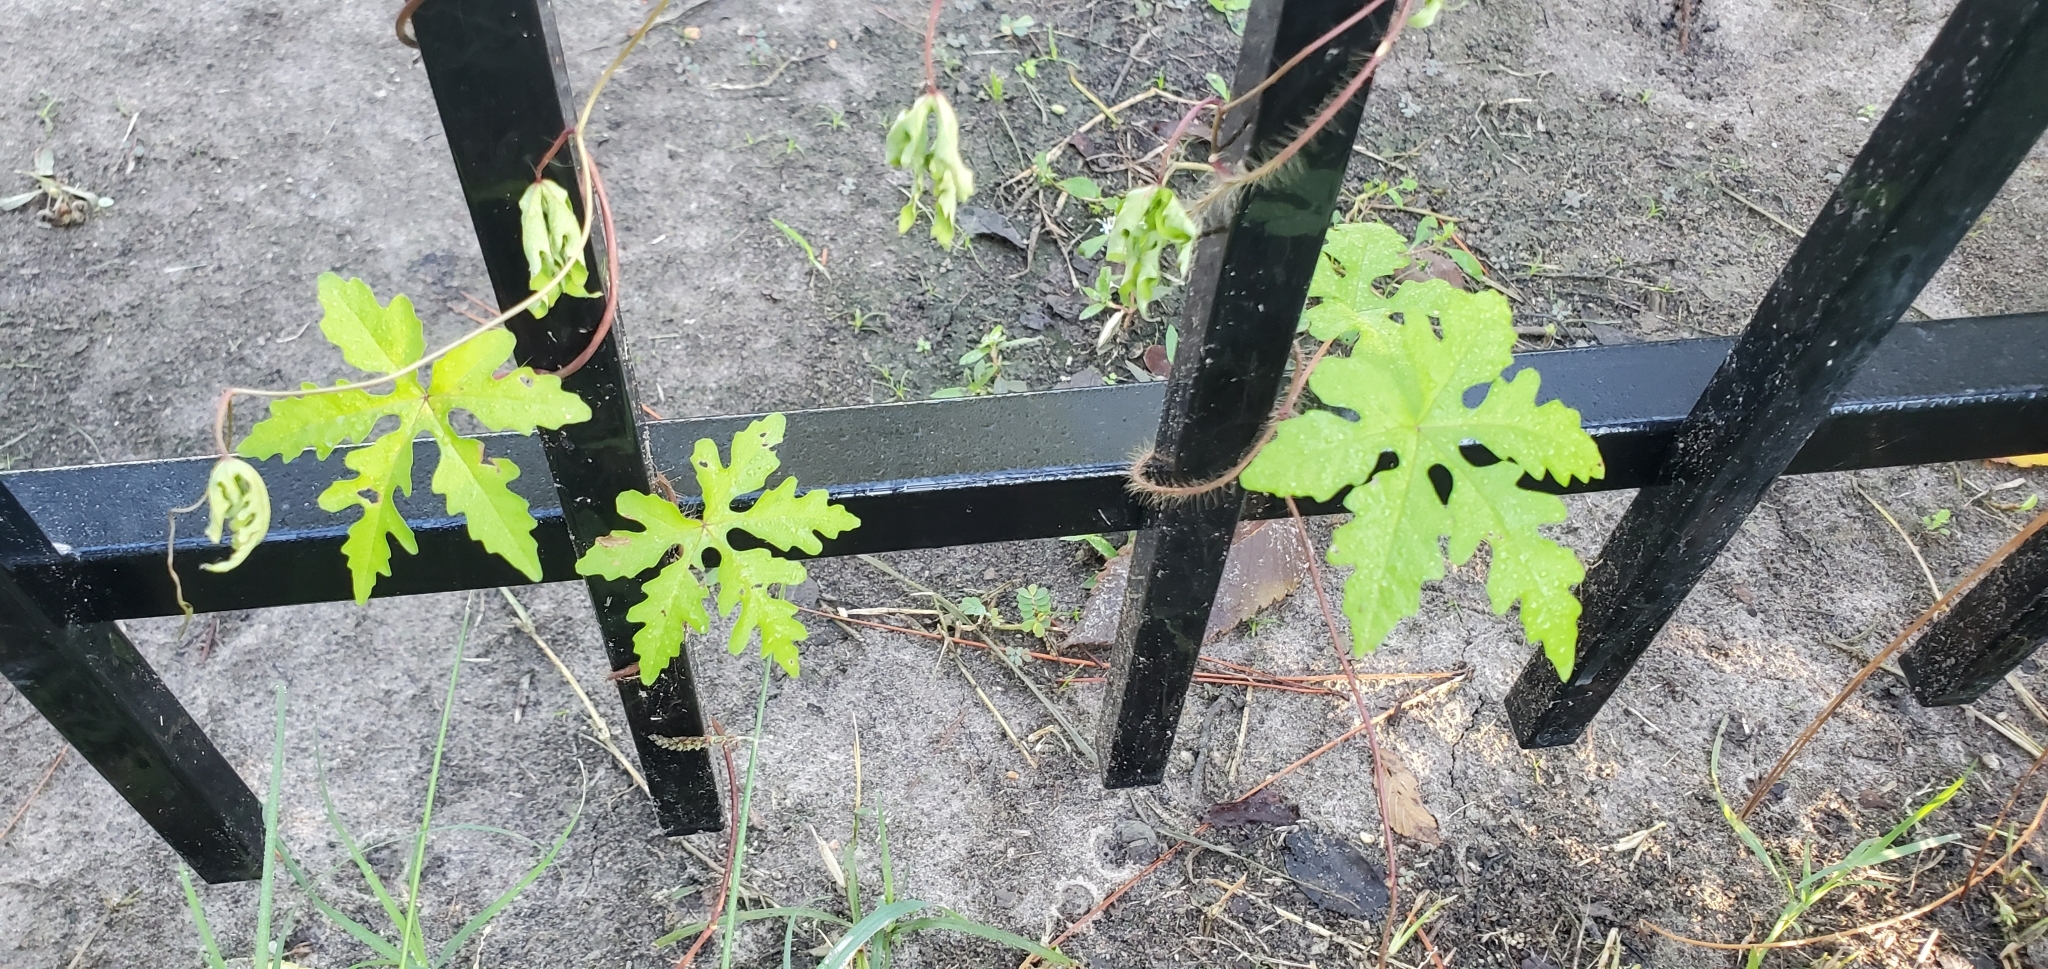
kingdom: Plantae
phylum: Tracheophyta
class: Magnoliopsida
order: Solanales
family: Convolvulaceae
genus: Distimake
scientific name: Distimake dissectus
